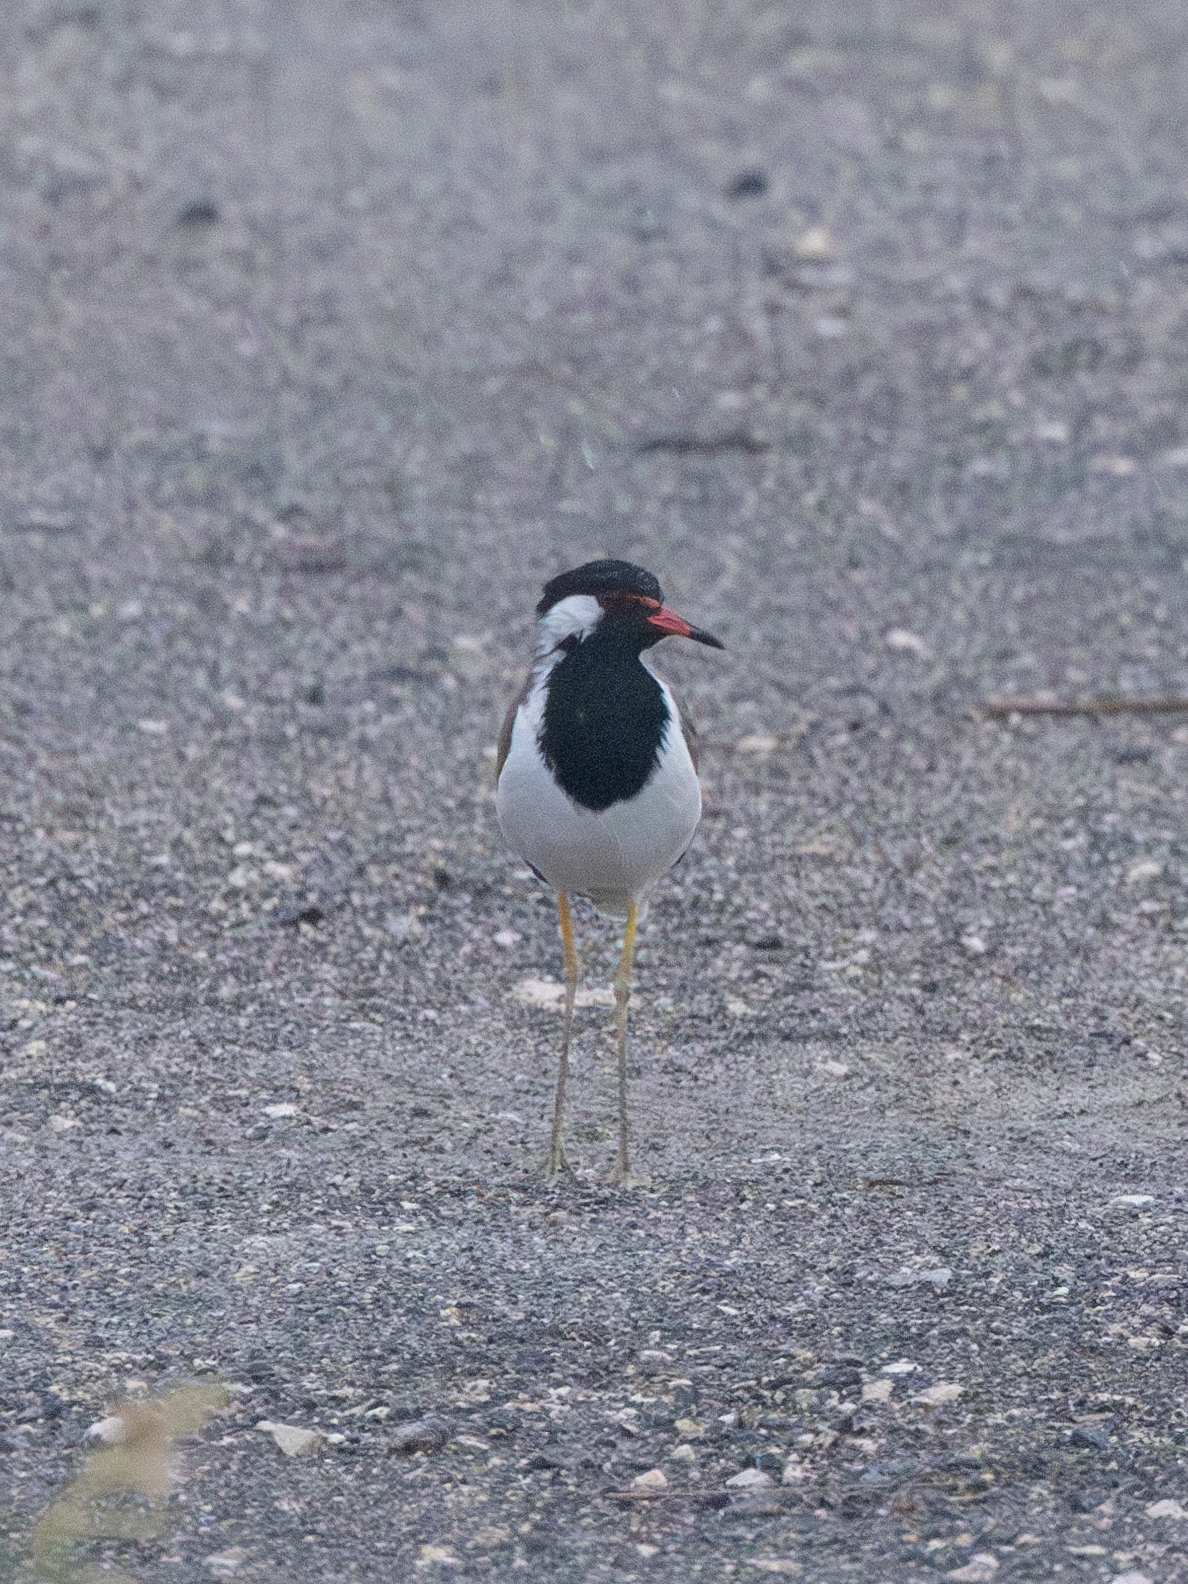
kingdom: Animalia
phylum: Chordata
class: Aves
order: Charadriiformes
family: Charadriidae
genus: Vanellus
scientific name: Vanellus indicus
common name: Red-wattled lapwing
